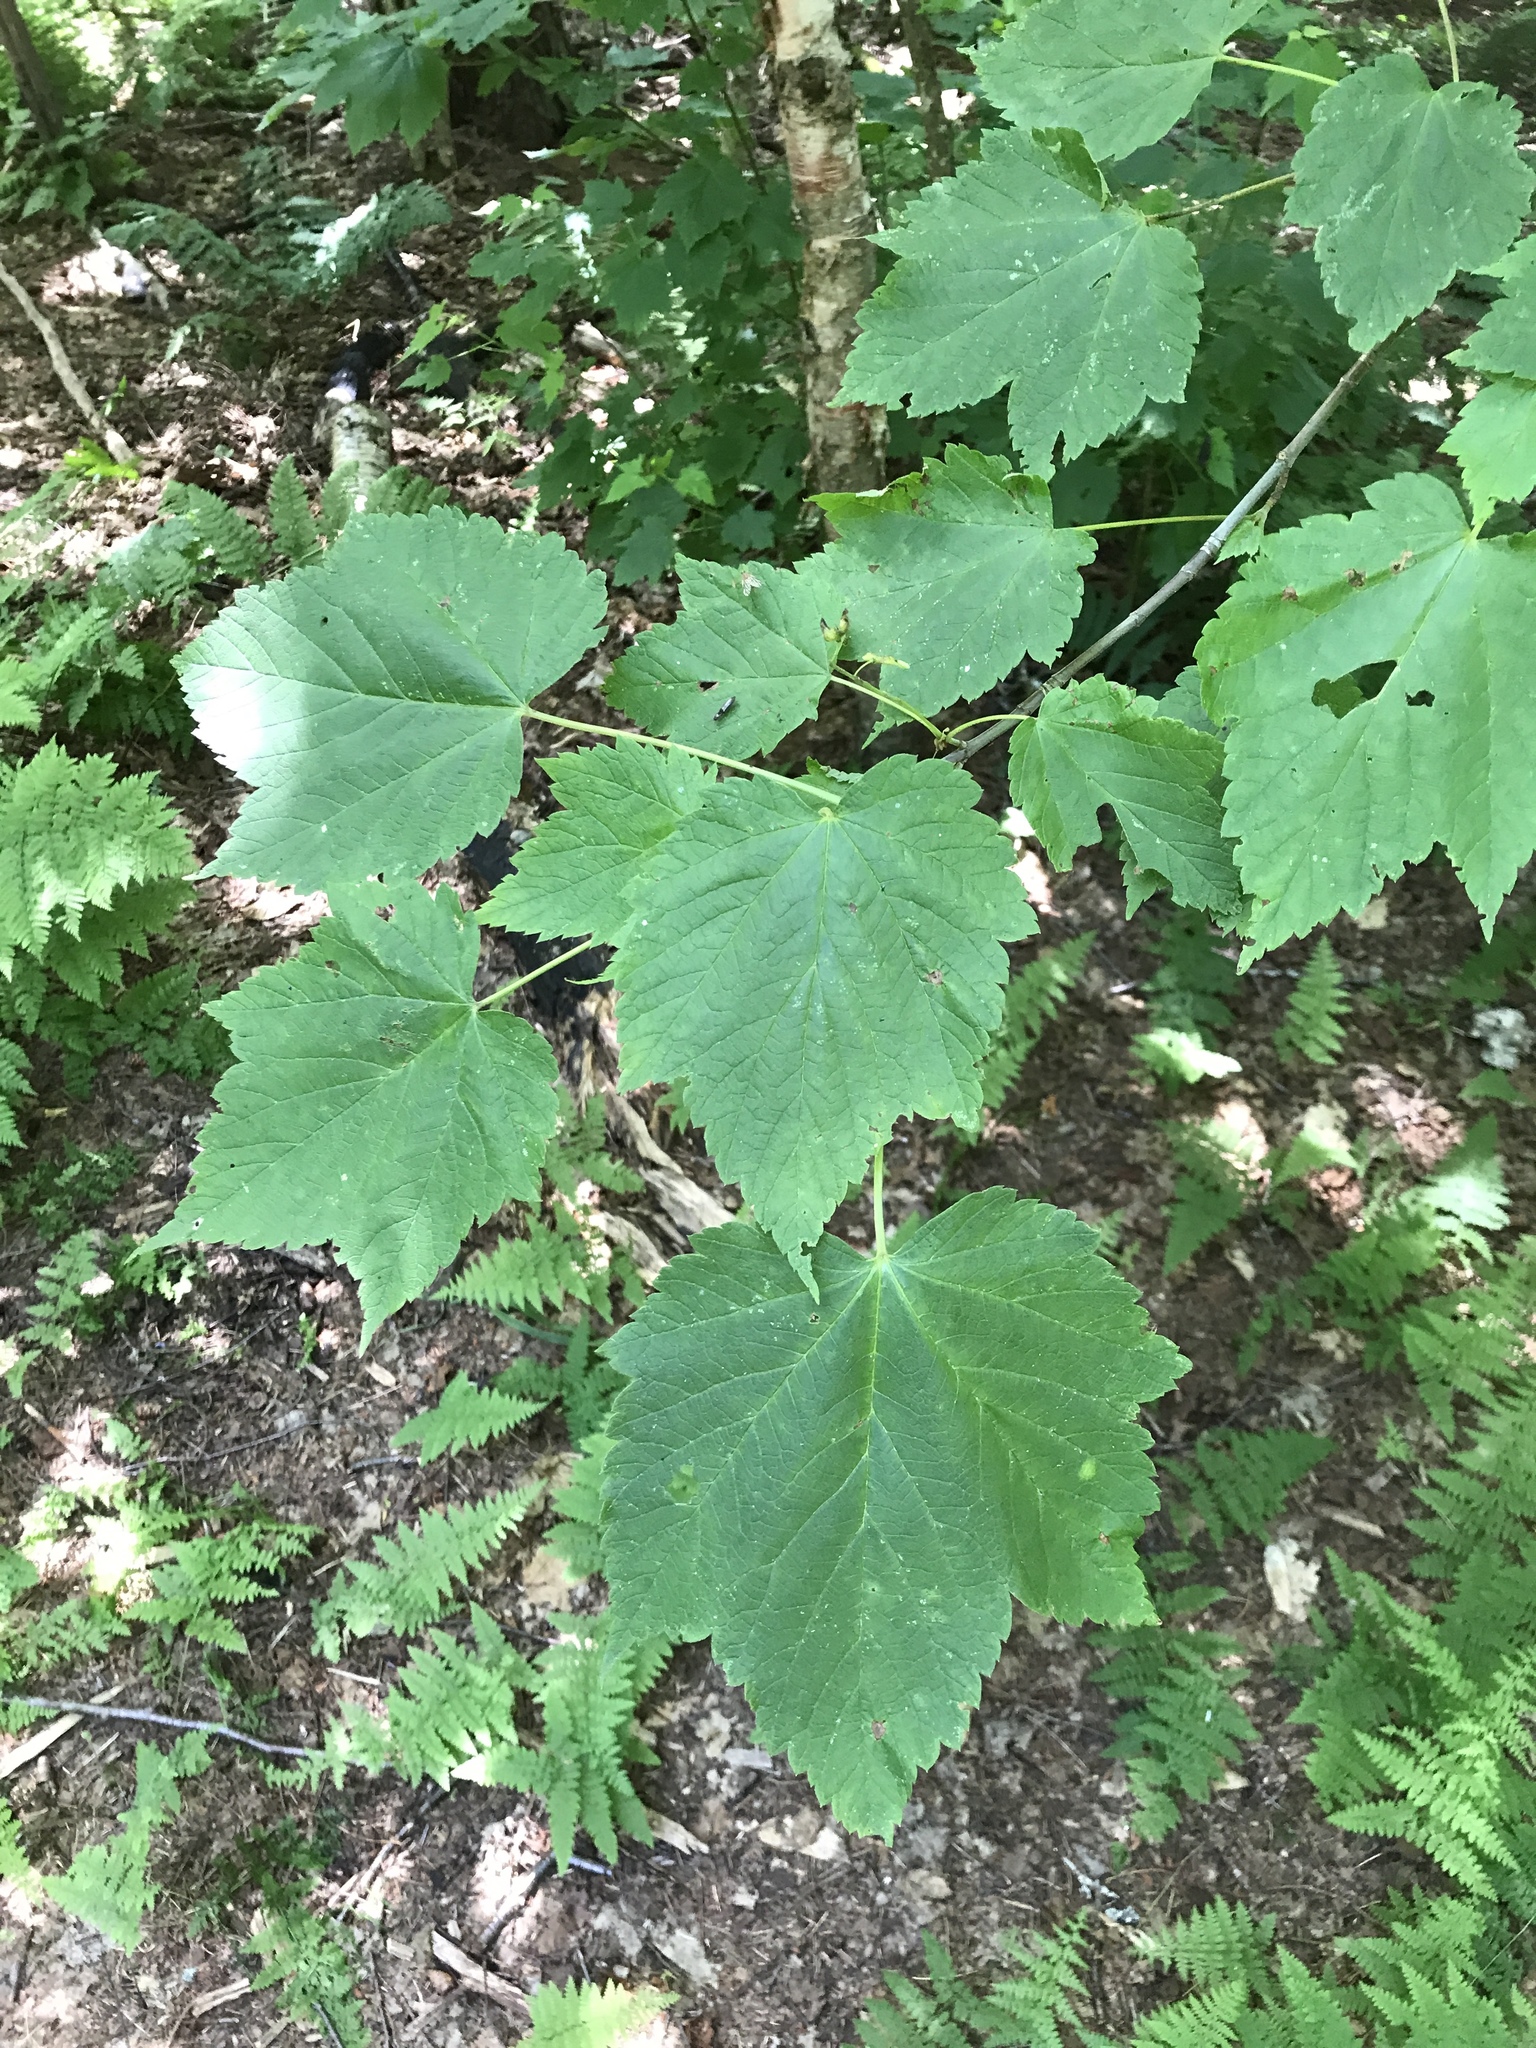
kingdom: Plantae
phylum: Tracheophyta
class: Magnoliopsida
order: Sapindales
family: Sapindaceae
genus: Acer
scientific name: Acer spicatum
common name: Mountain maple
